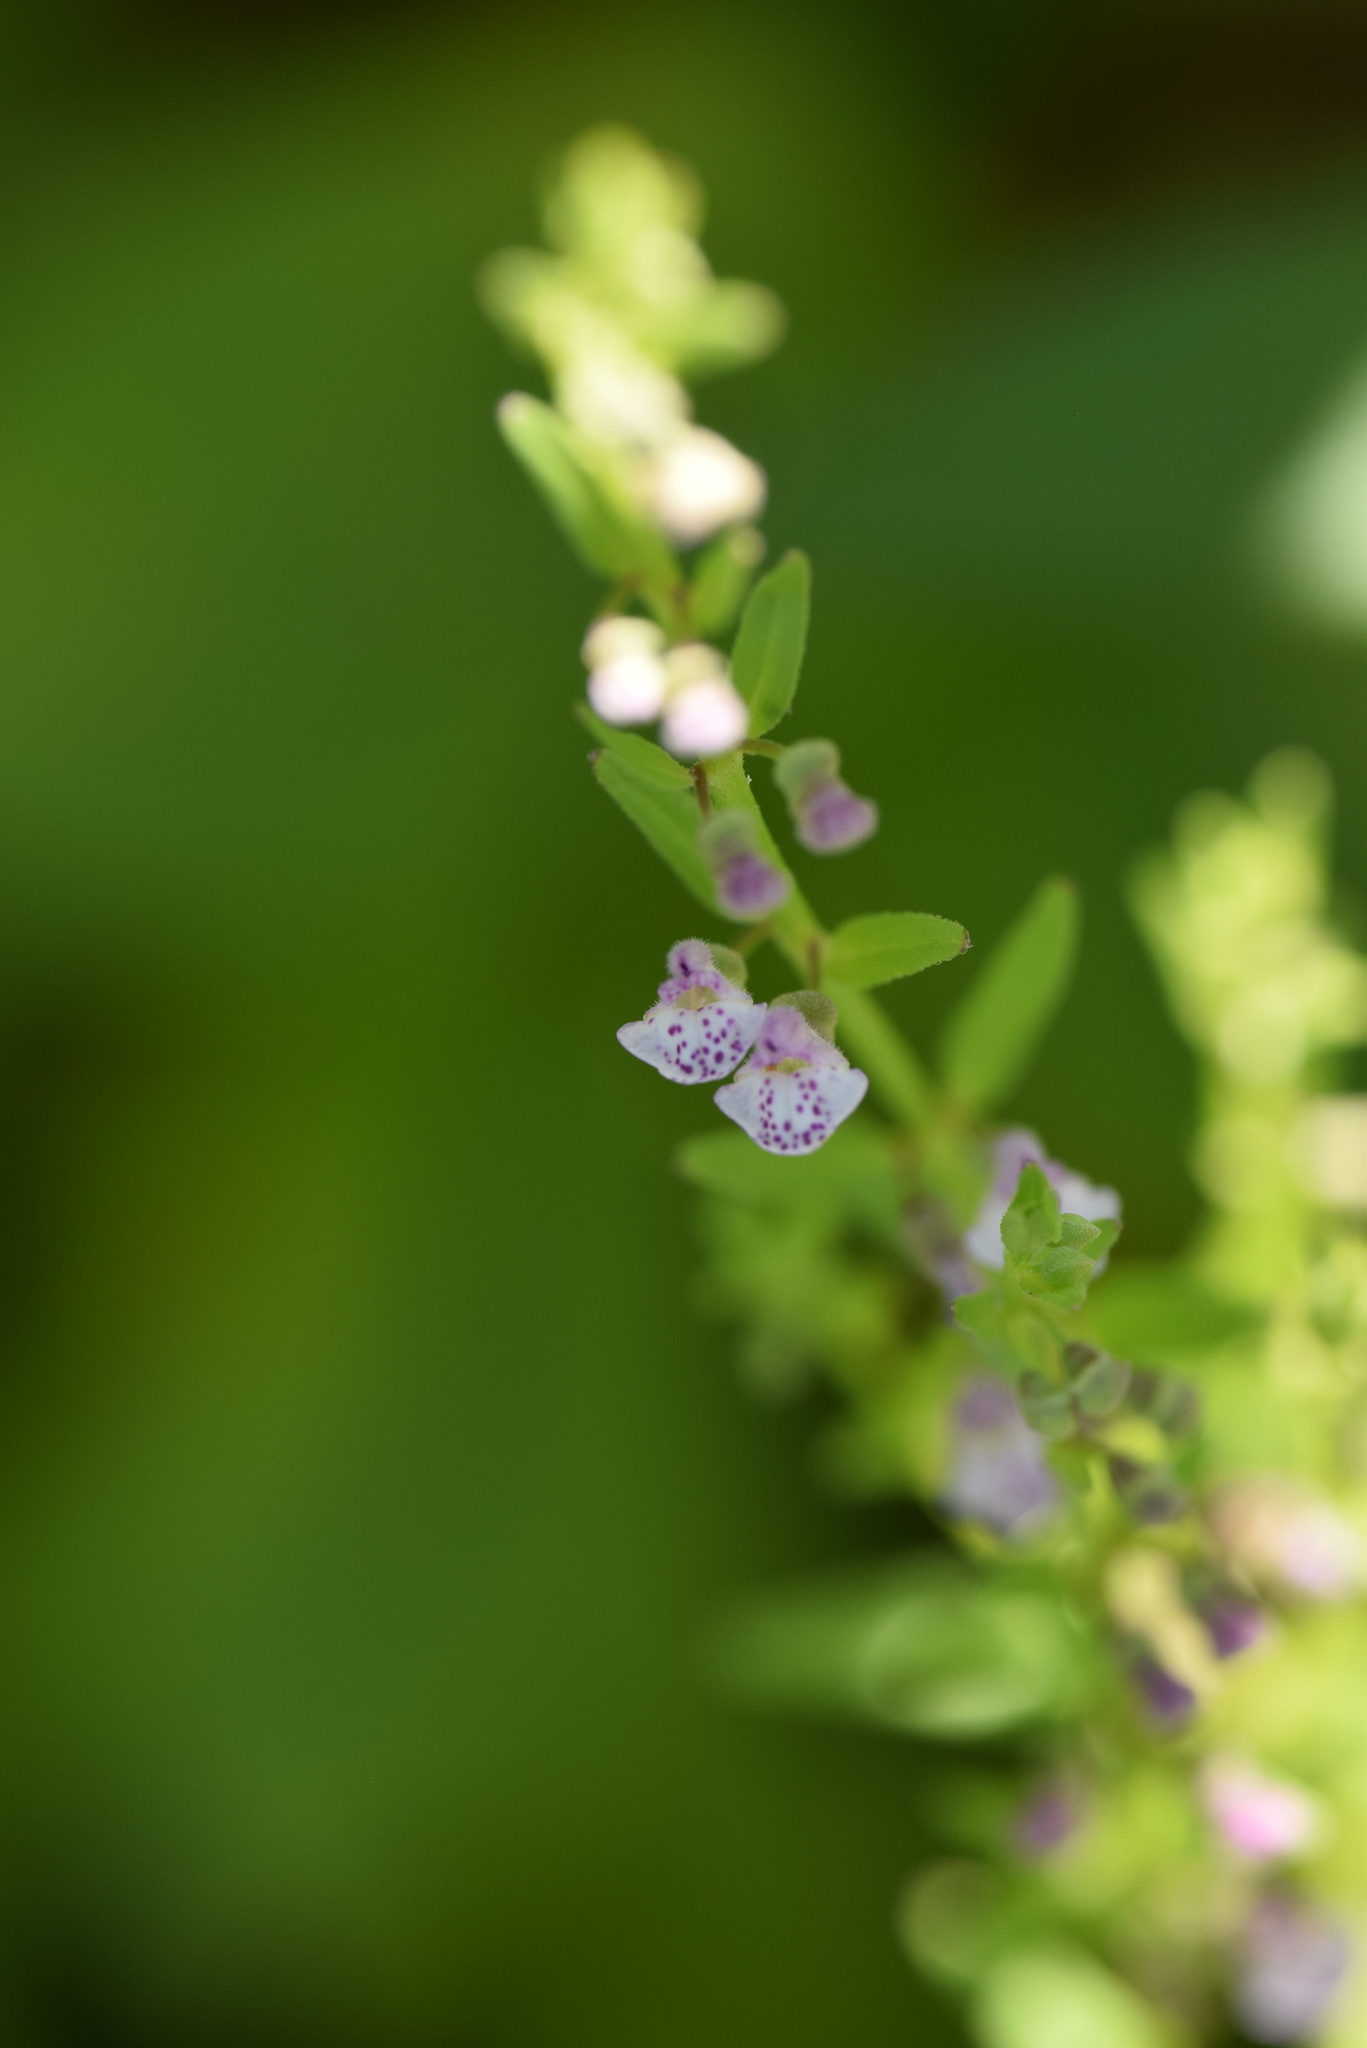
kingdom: Plantae
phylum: Tracheophyta
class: Magnoliopsida
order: Lamiales
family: Lamiaceae
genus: Scutellaria
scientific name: Scutellaria racemosa
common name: South american skullcap
